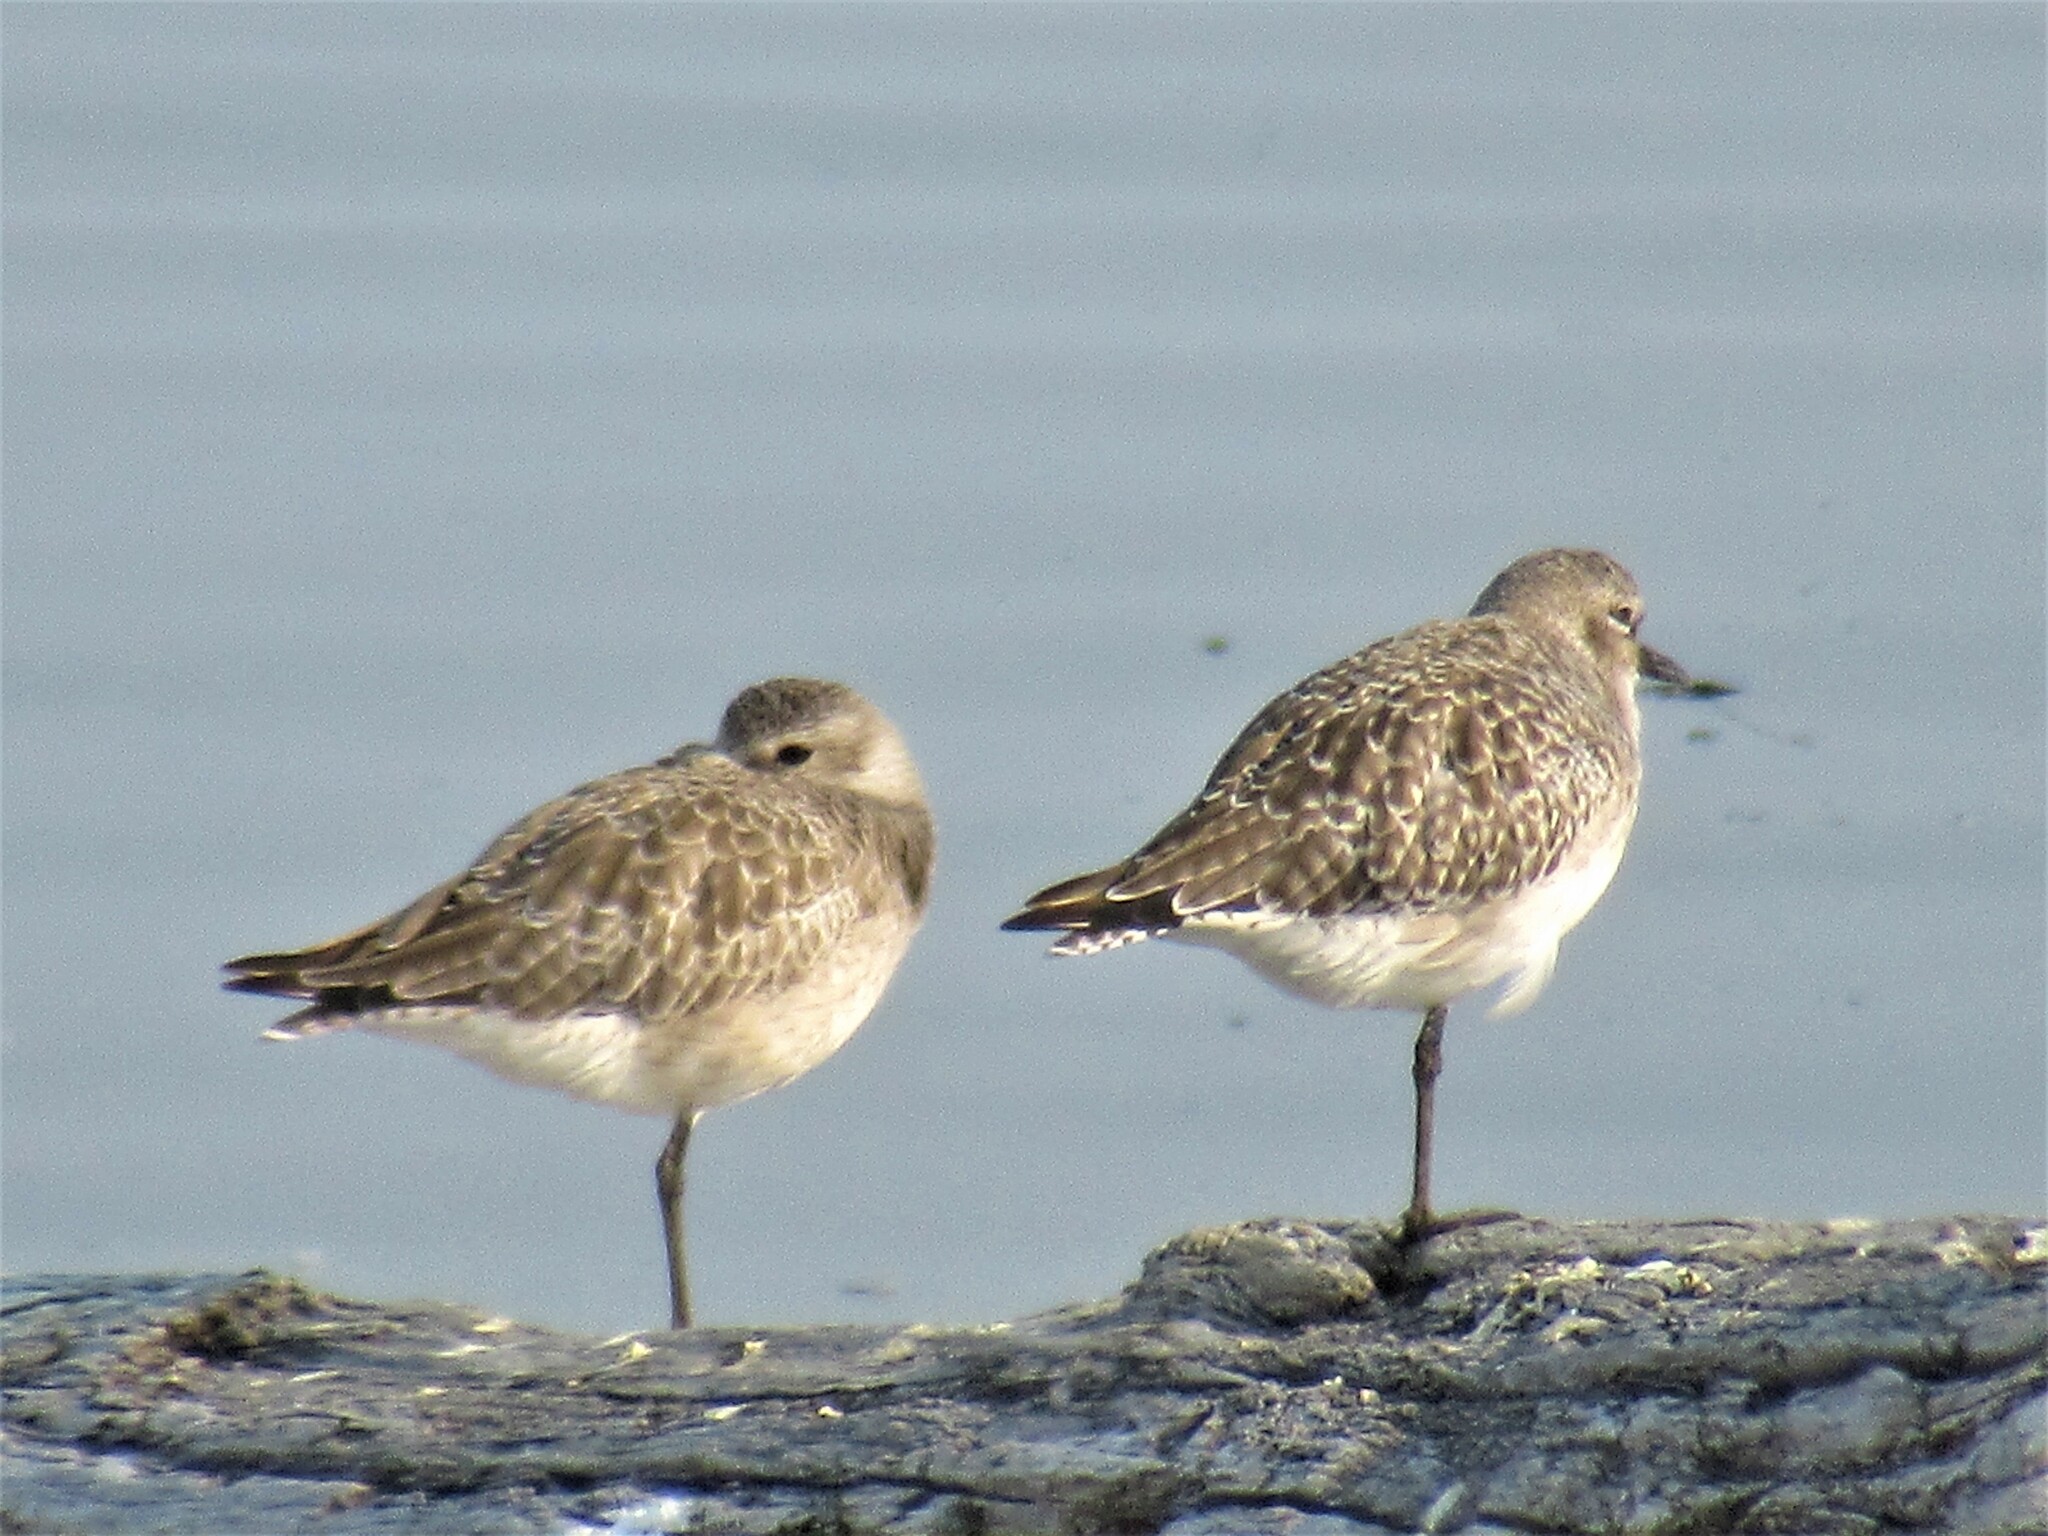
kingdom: Animalia
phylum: Chordata
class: Aves
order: Charadriiformes
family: Charadriidae
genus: Pluvialis
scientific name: Pluvialis squatarola
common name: Grey plover
